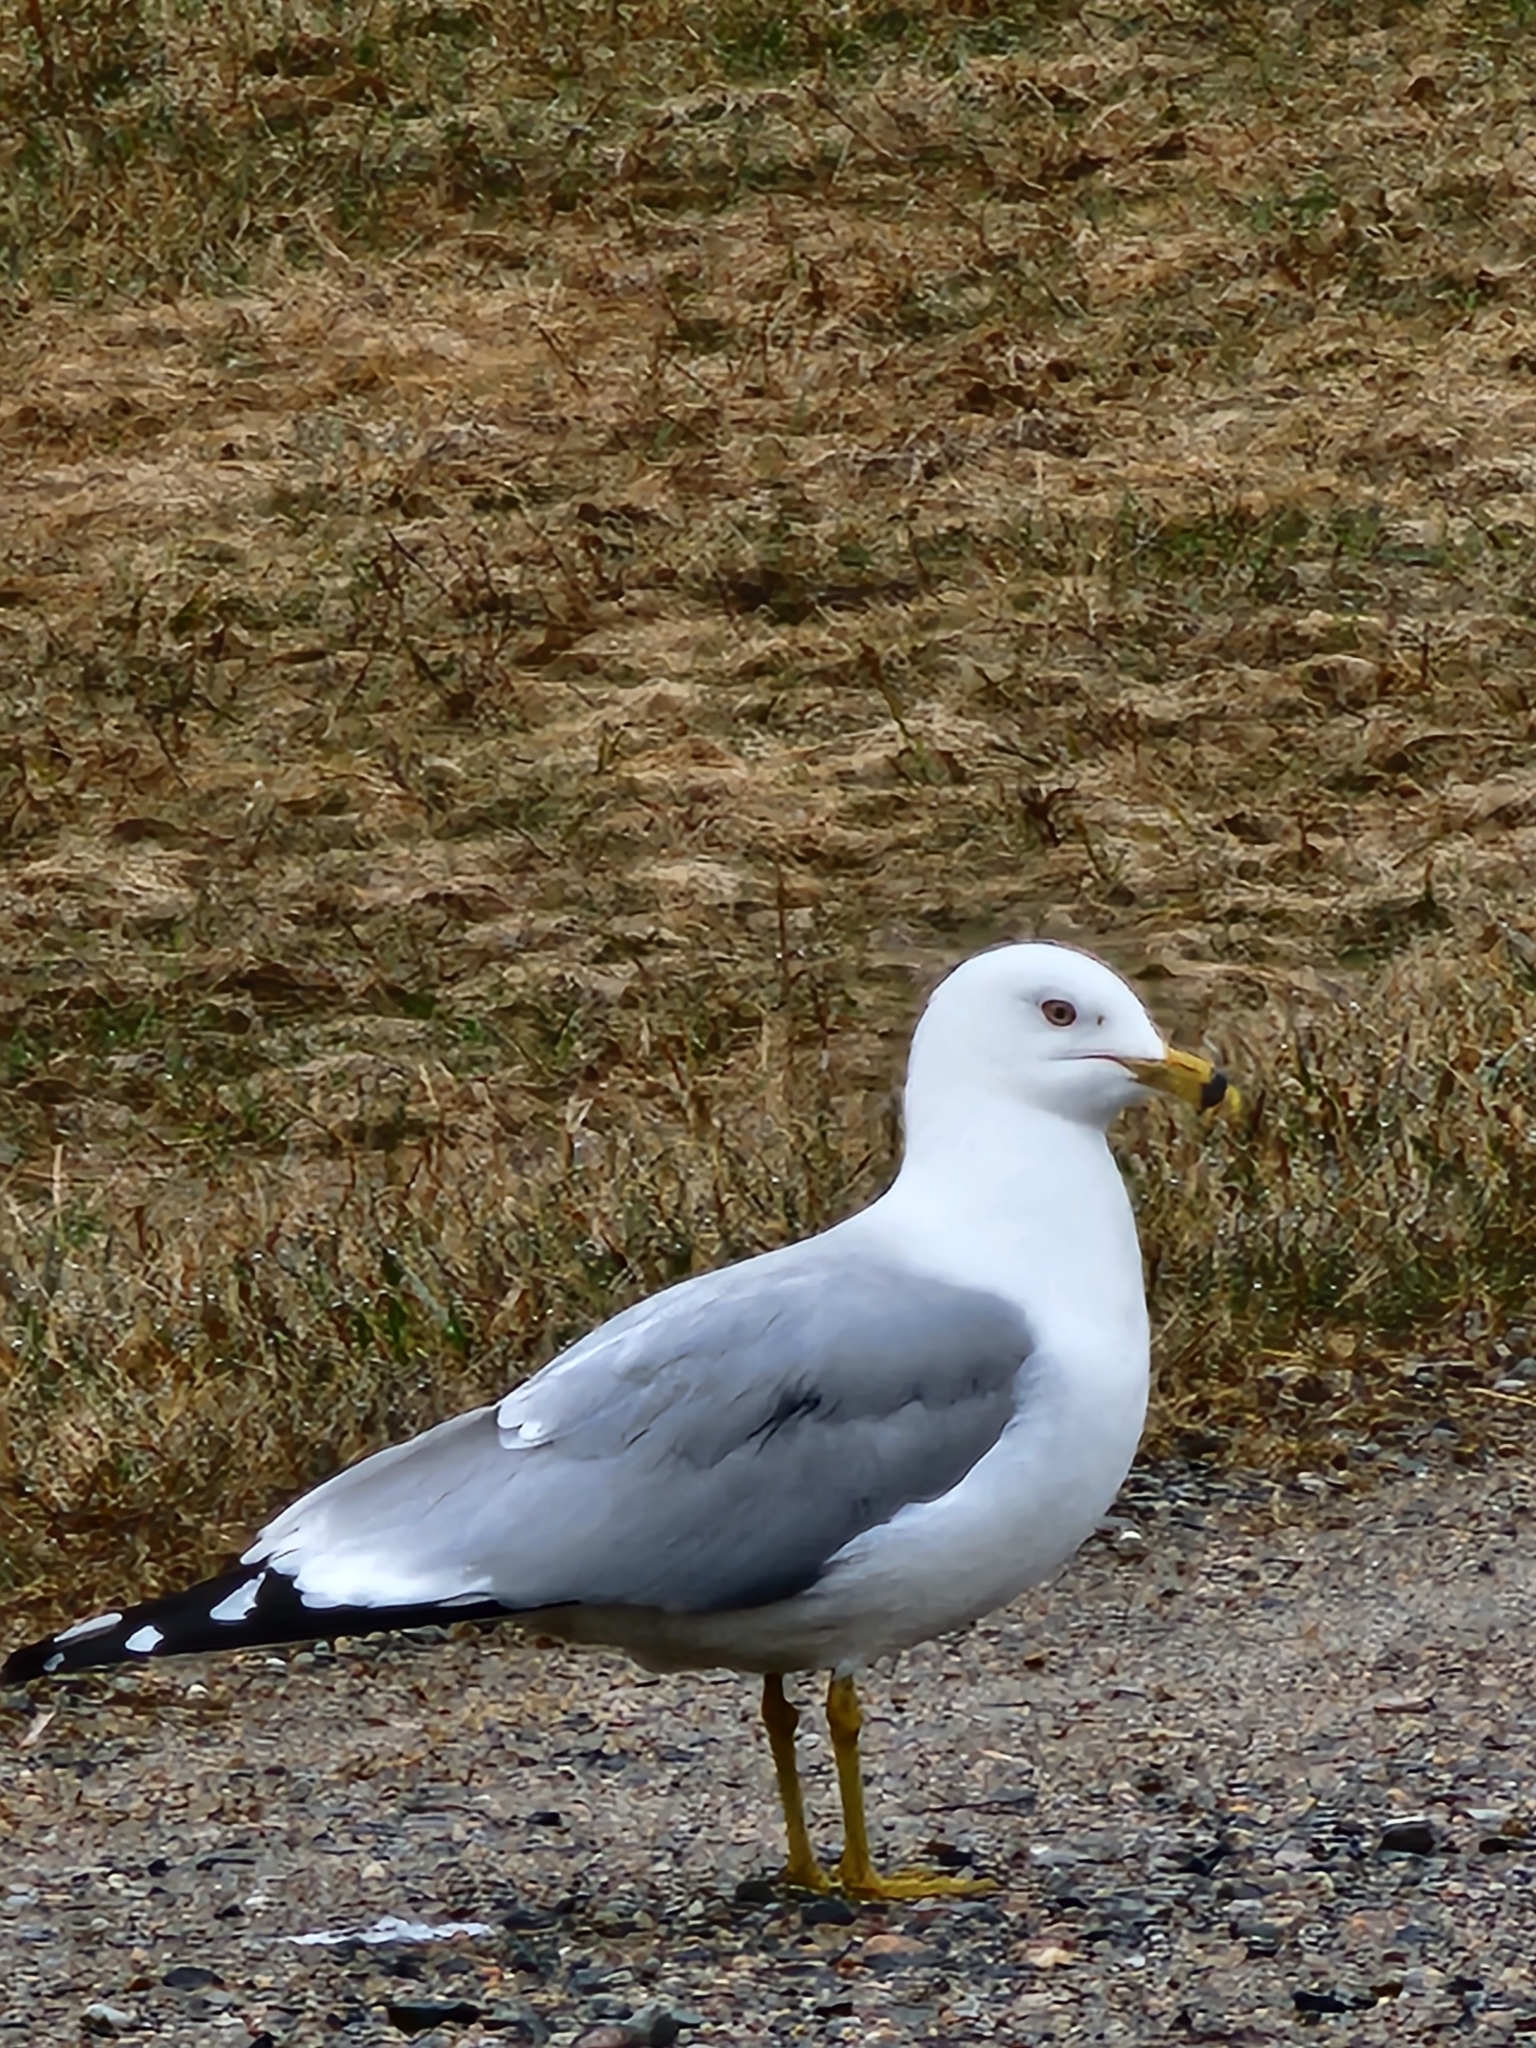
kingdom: Animalia
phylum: Chordata
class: Aves
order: Charadriiformes
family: Laridae
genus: Larus
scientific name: Larus delawarensis
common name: Ring-billed gull
